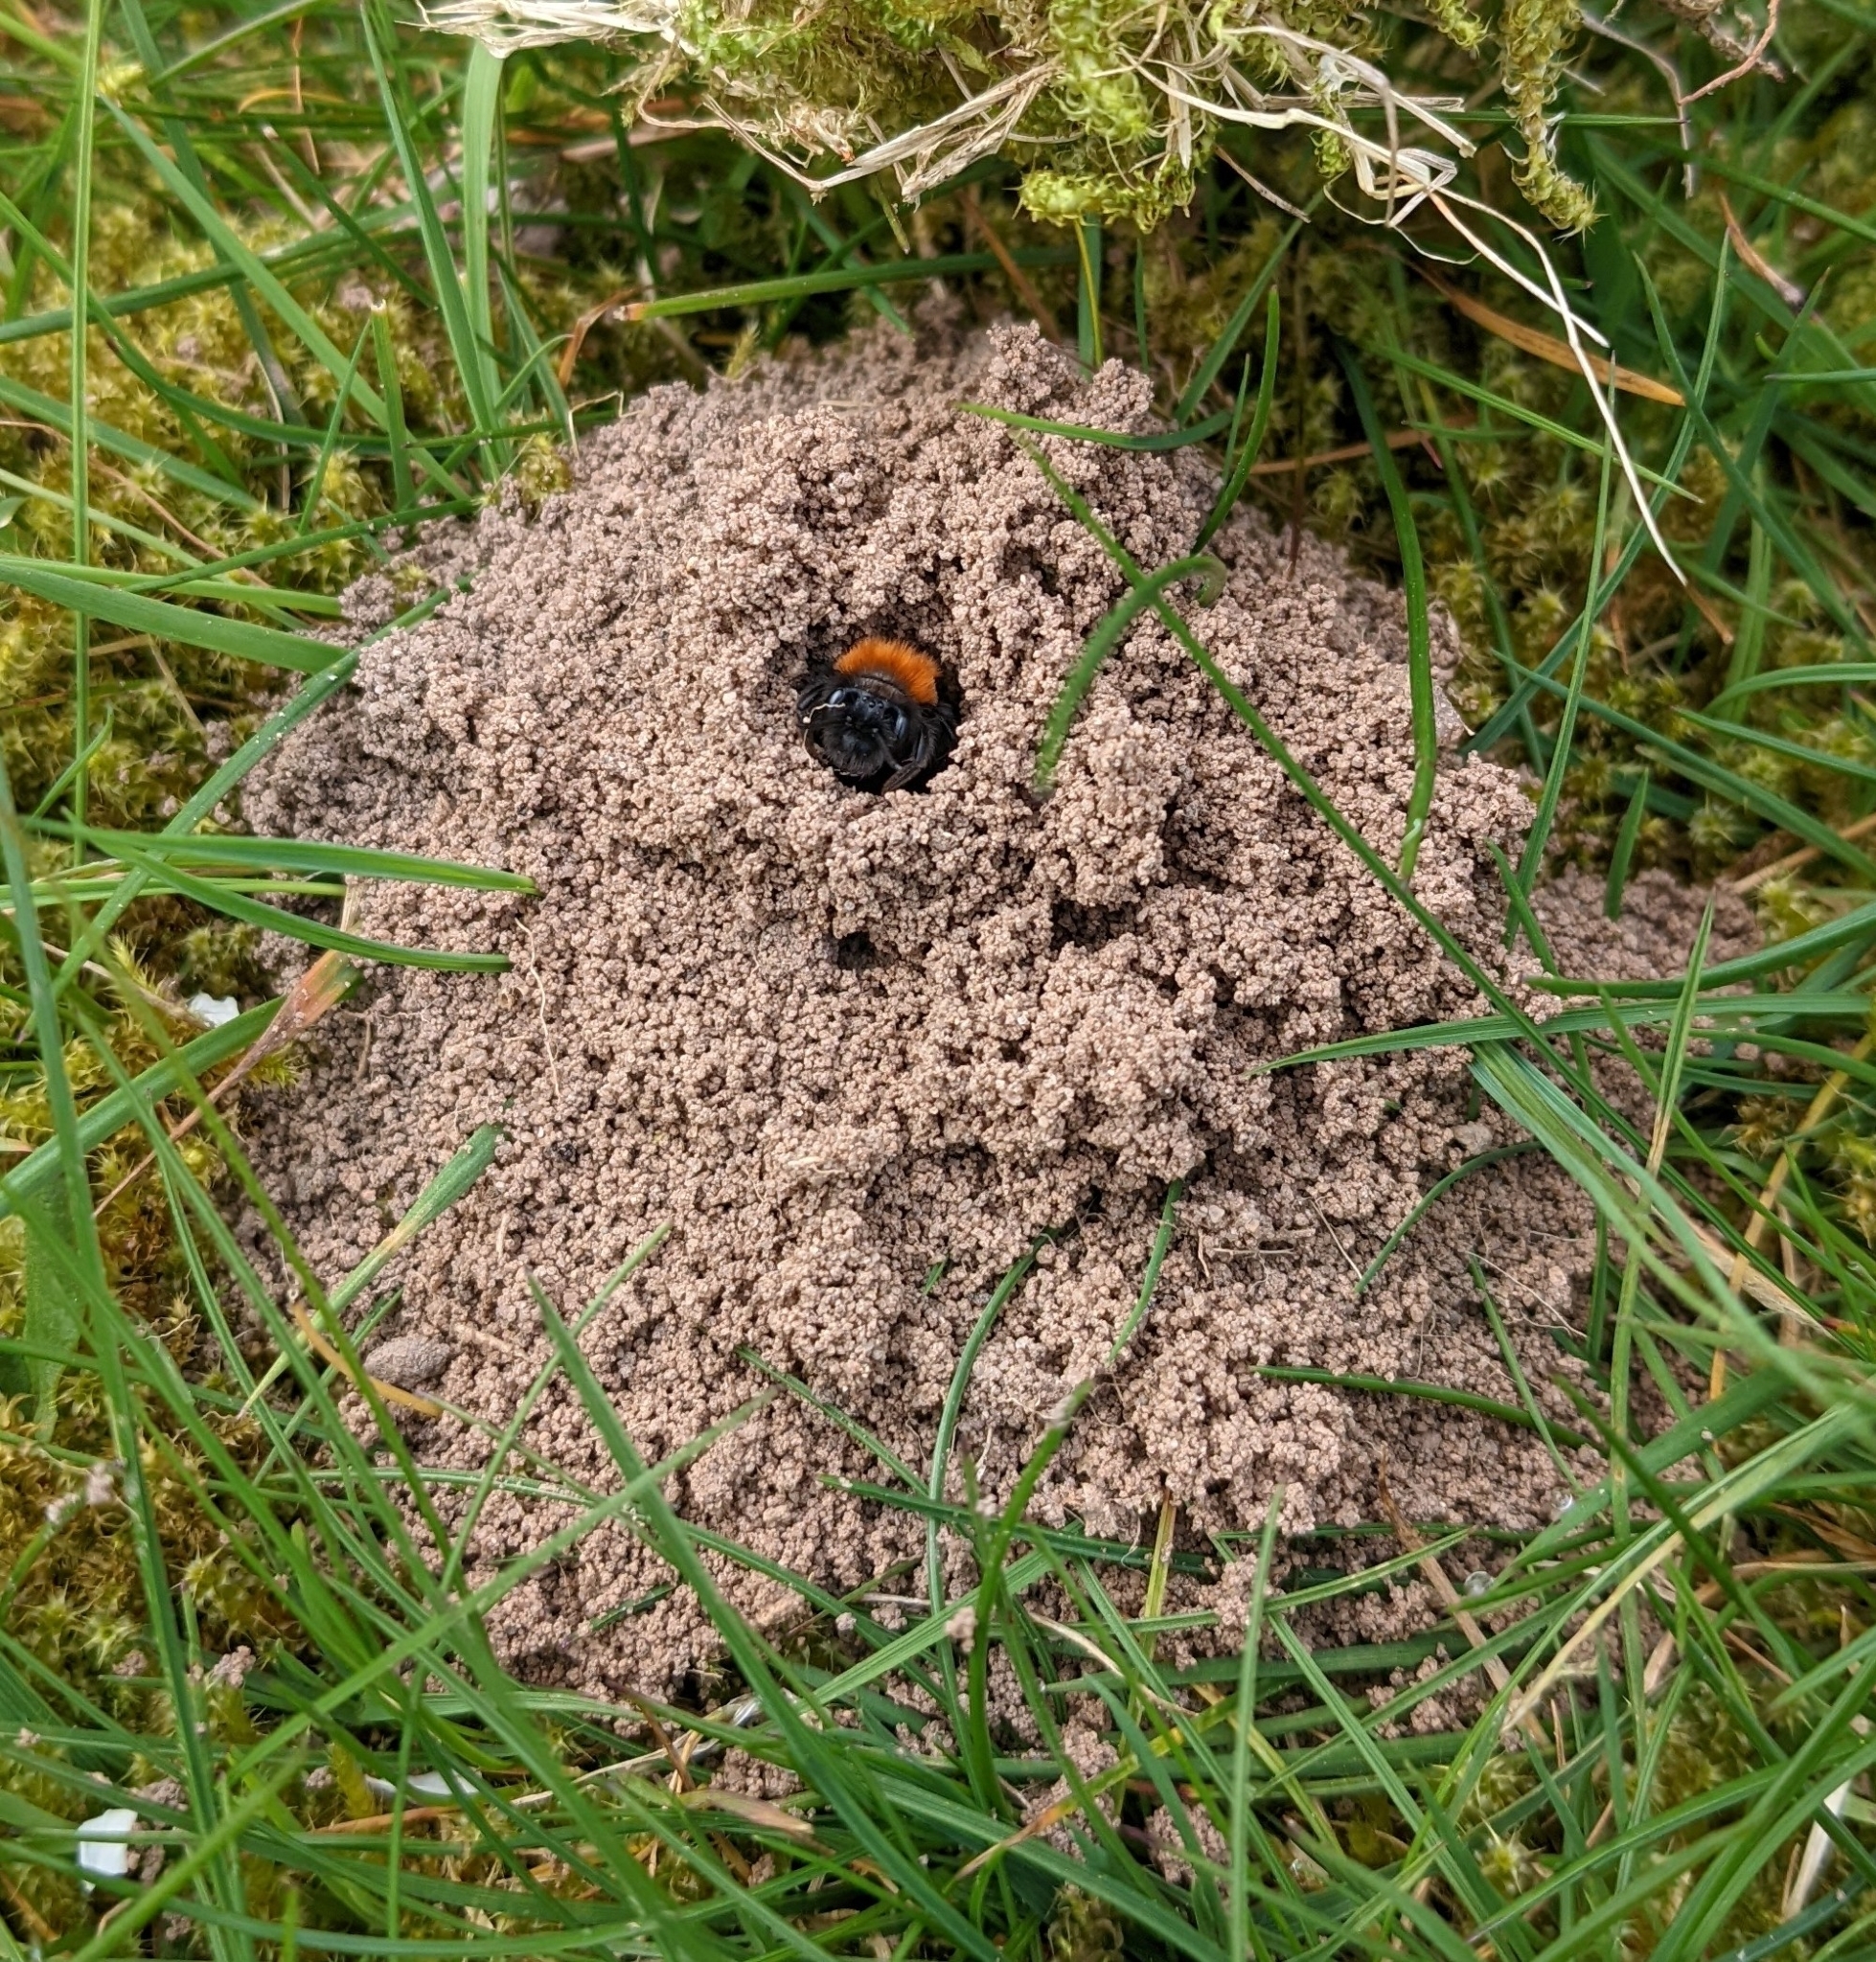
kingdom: Animalia
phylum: Arthropoda
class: Insecta
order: Hymenoptera
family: Andrenidae
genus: Andrena
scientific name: Andrena fulva
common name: Tawny mining bee
